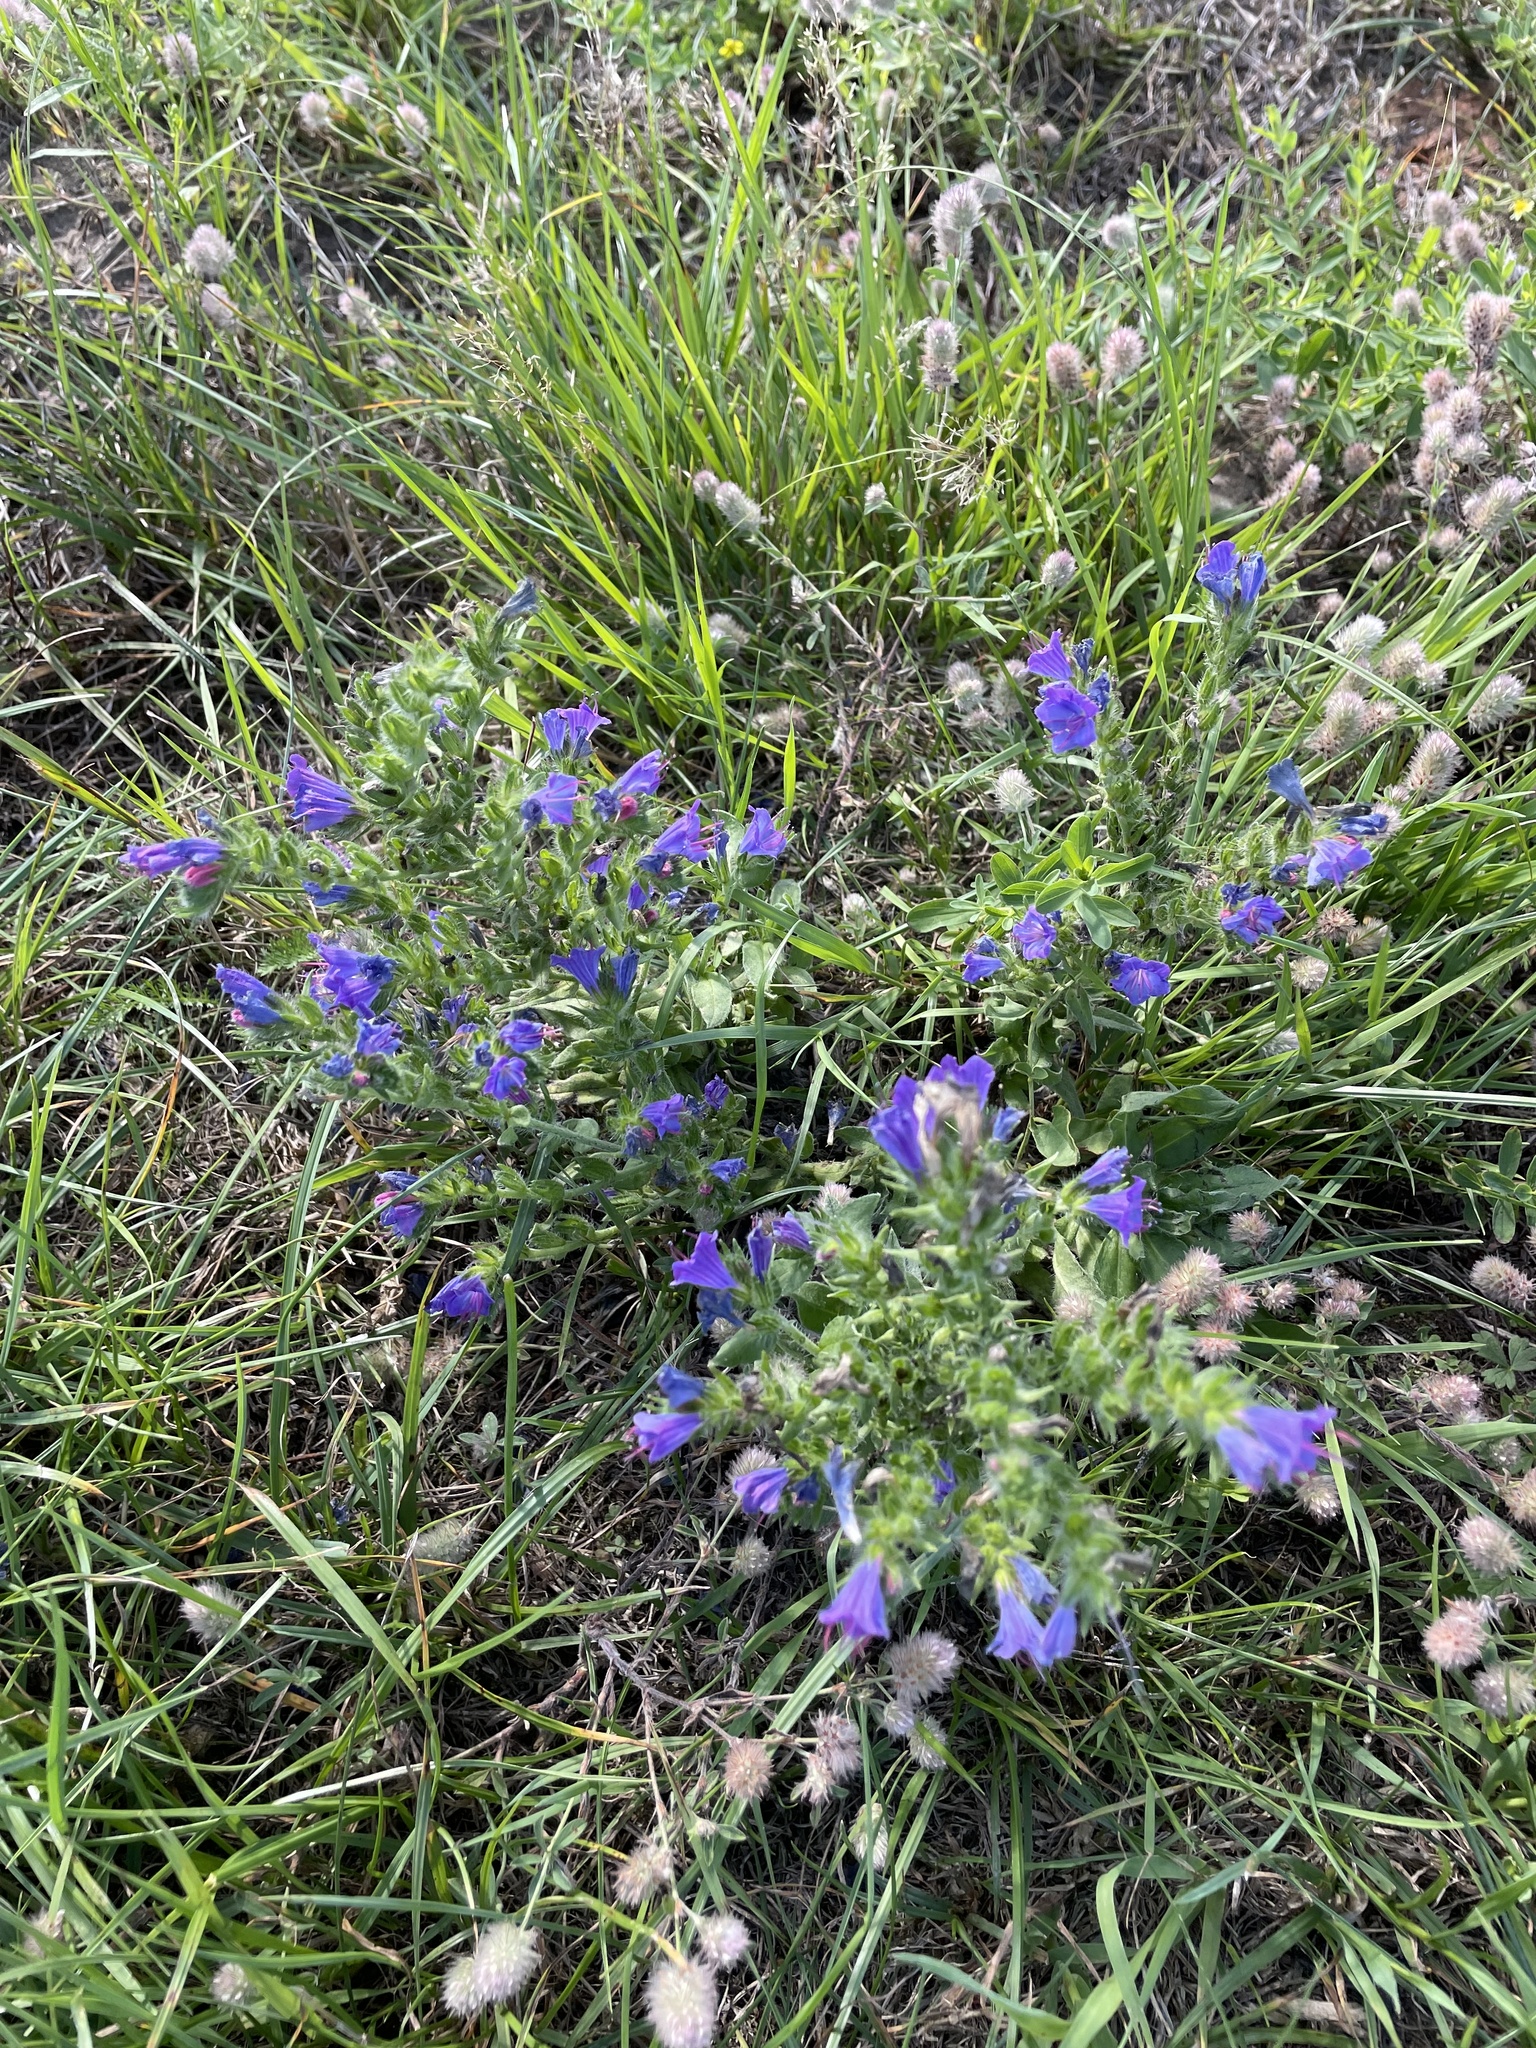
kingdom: Plantae
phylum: Tracheophyta
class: Magnoliopsida
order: Boraginales
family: Boraginaceae
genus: Echium
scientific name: Echium vulgare
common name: Common viper's bugloss
